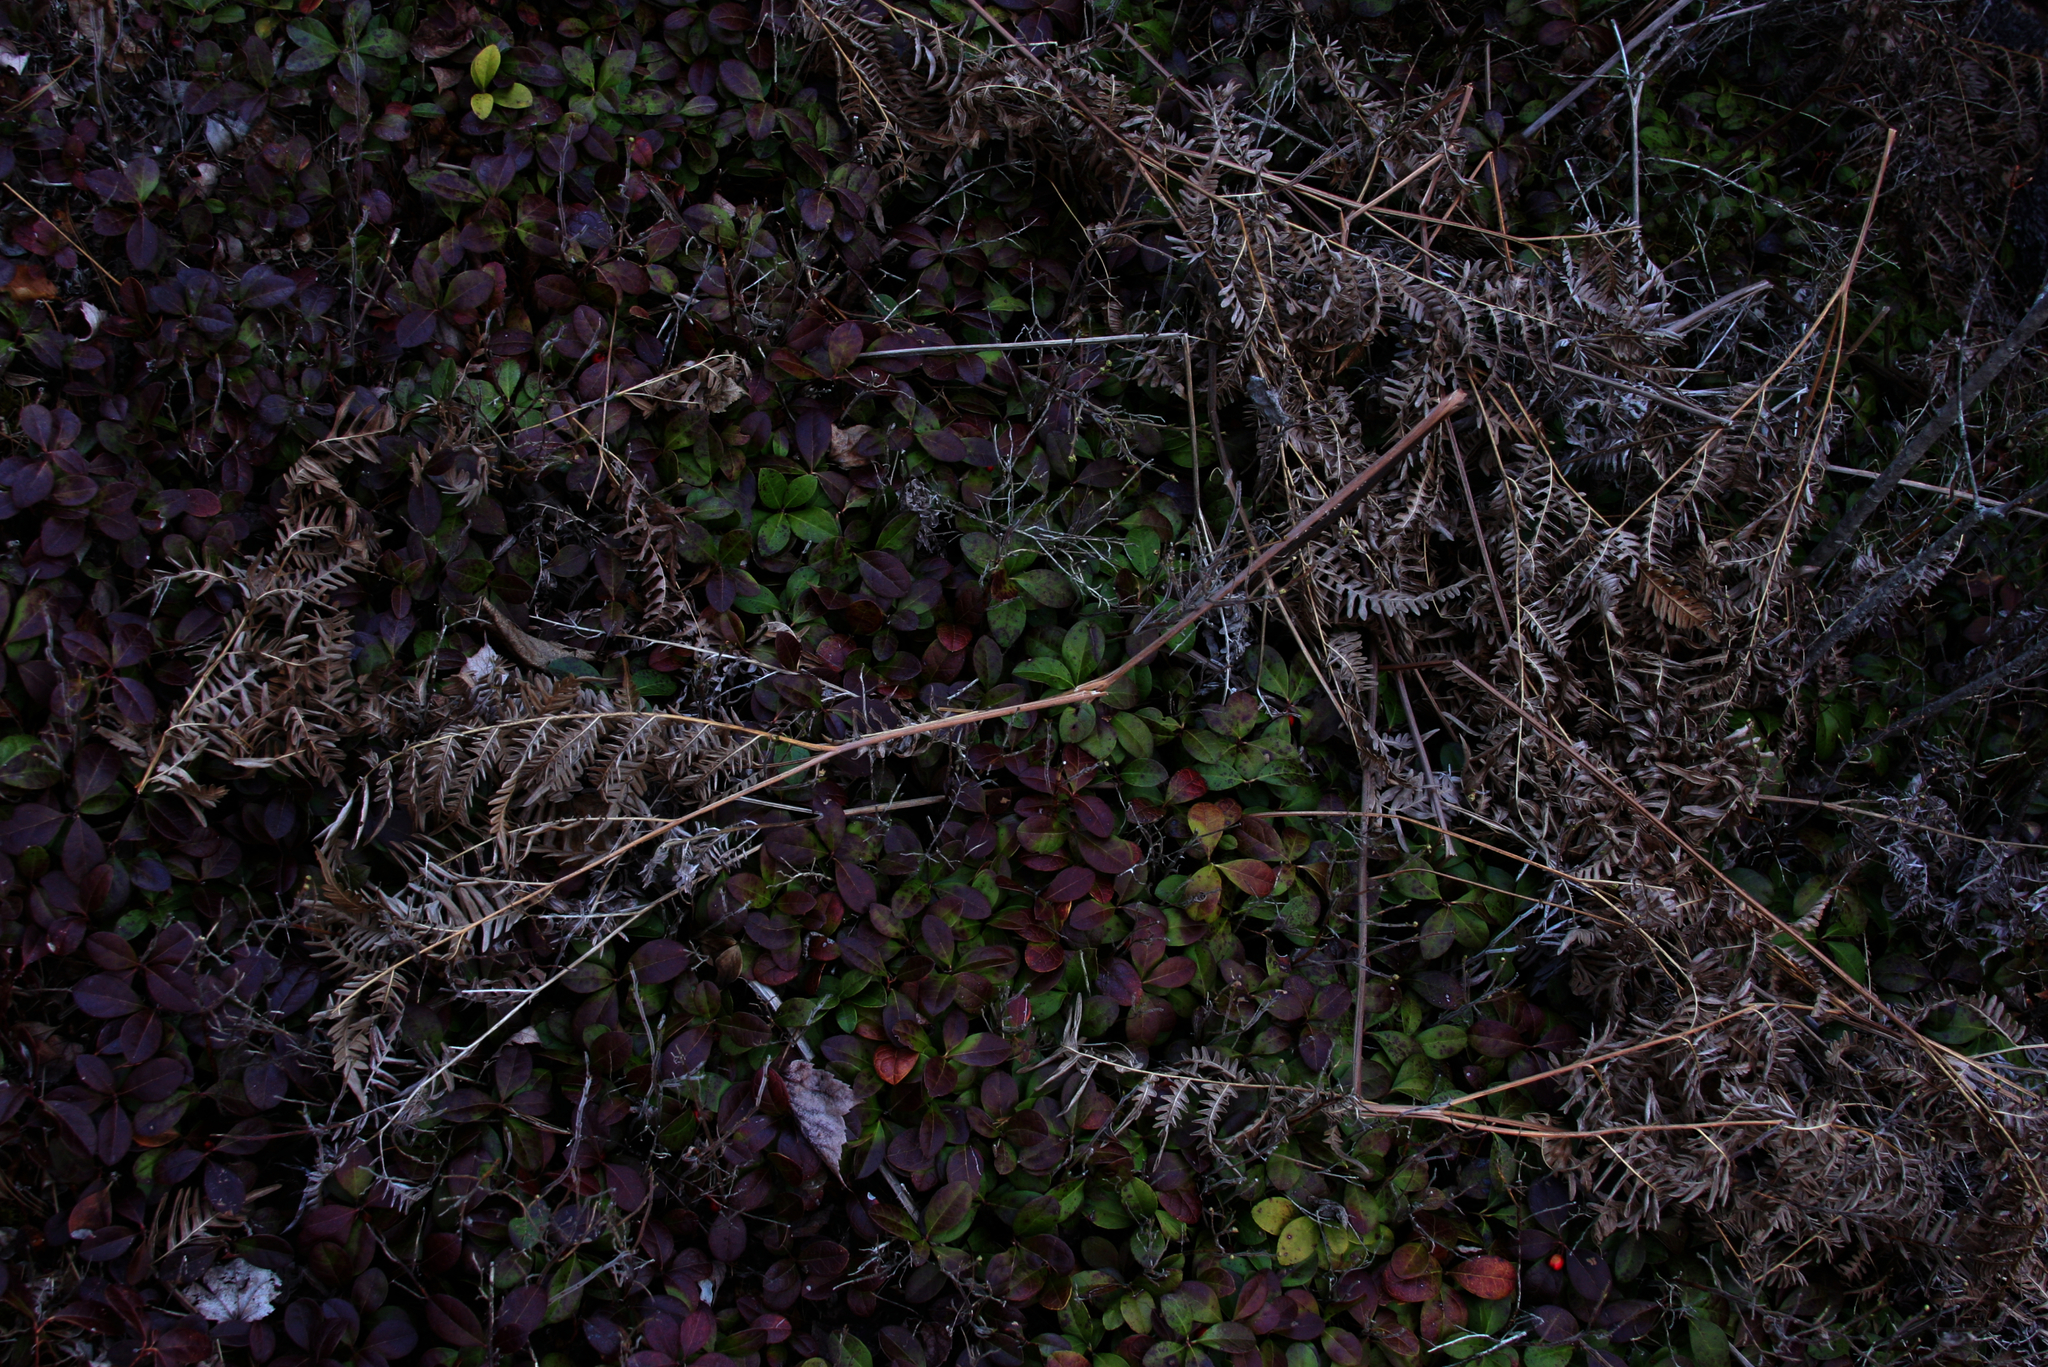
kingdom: Plantae
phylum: Tracheophyta
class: Polypodiopsida
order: Polypodiales
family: Dennstaedtiaceae
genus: Pteridium
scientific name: Pteridium aquilinum
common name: Bracken
